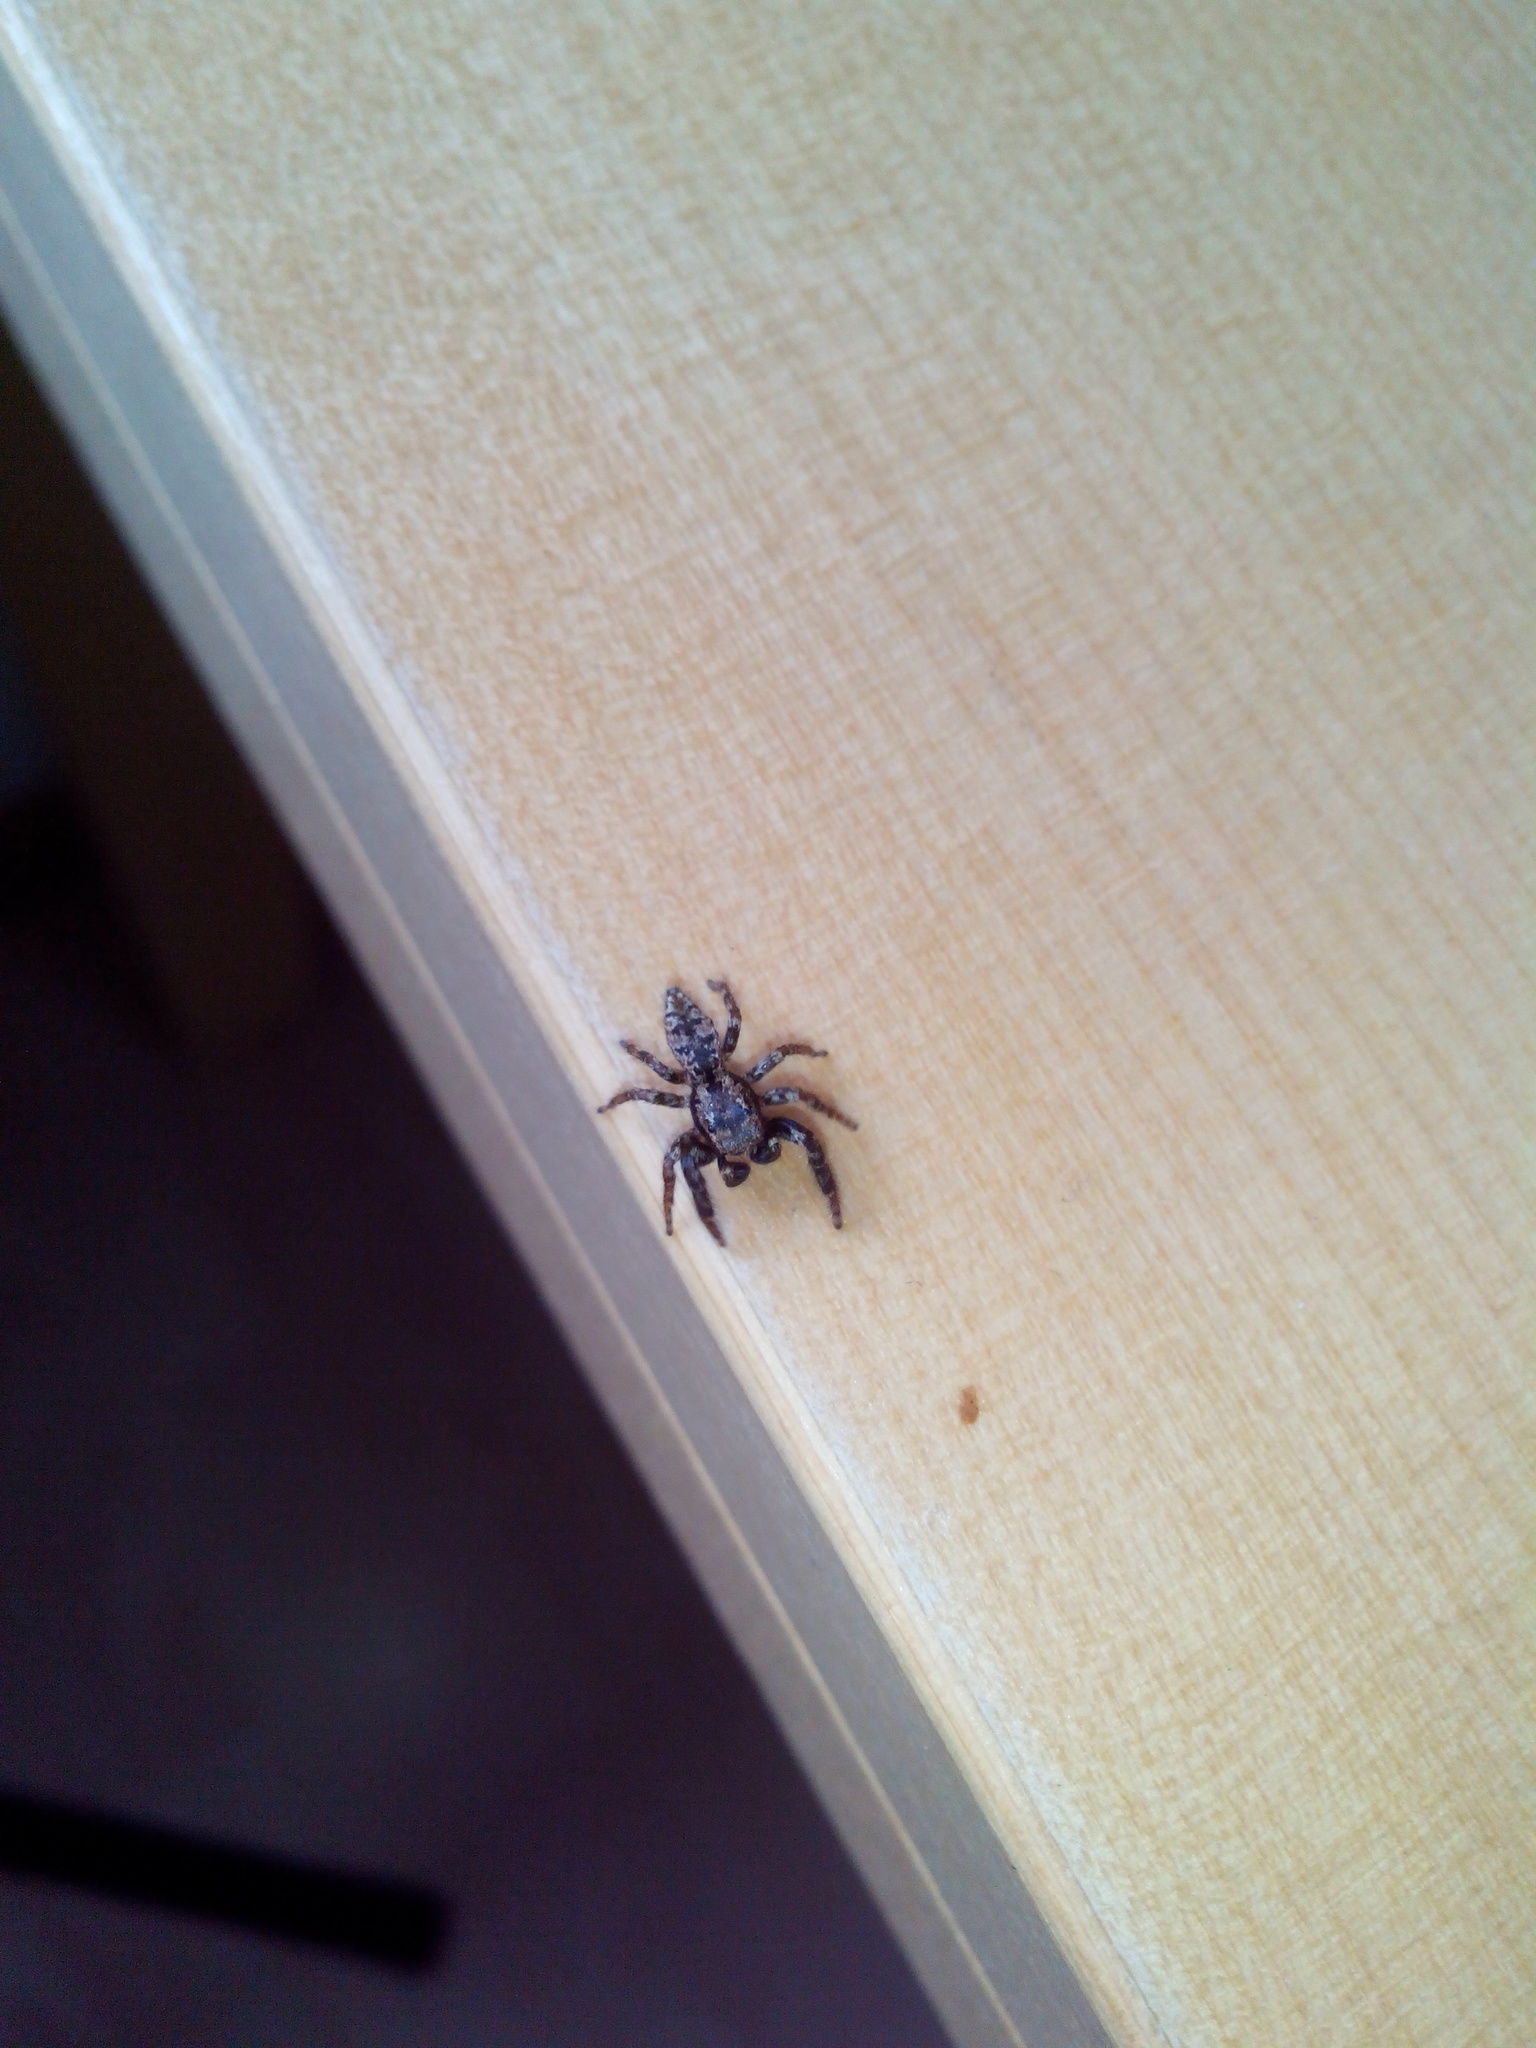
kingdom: Animalia
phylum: Arthropoda
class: Arachnida
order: Araneae
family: Salticidae
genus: Marpissa
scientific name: Marpissa muscosa
